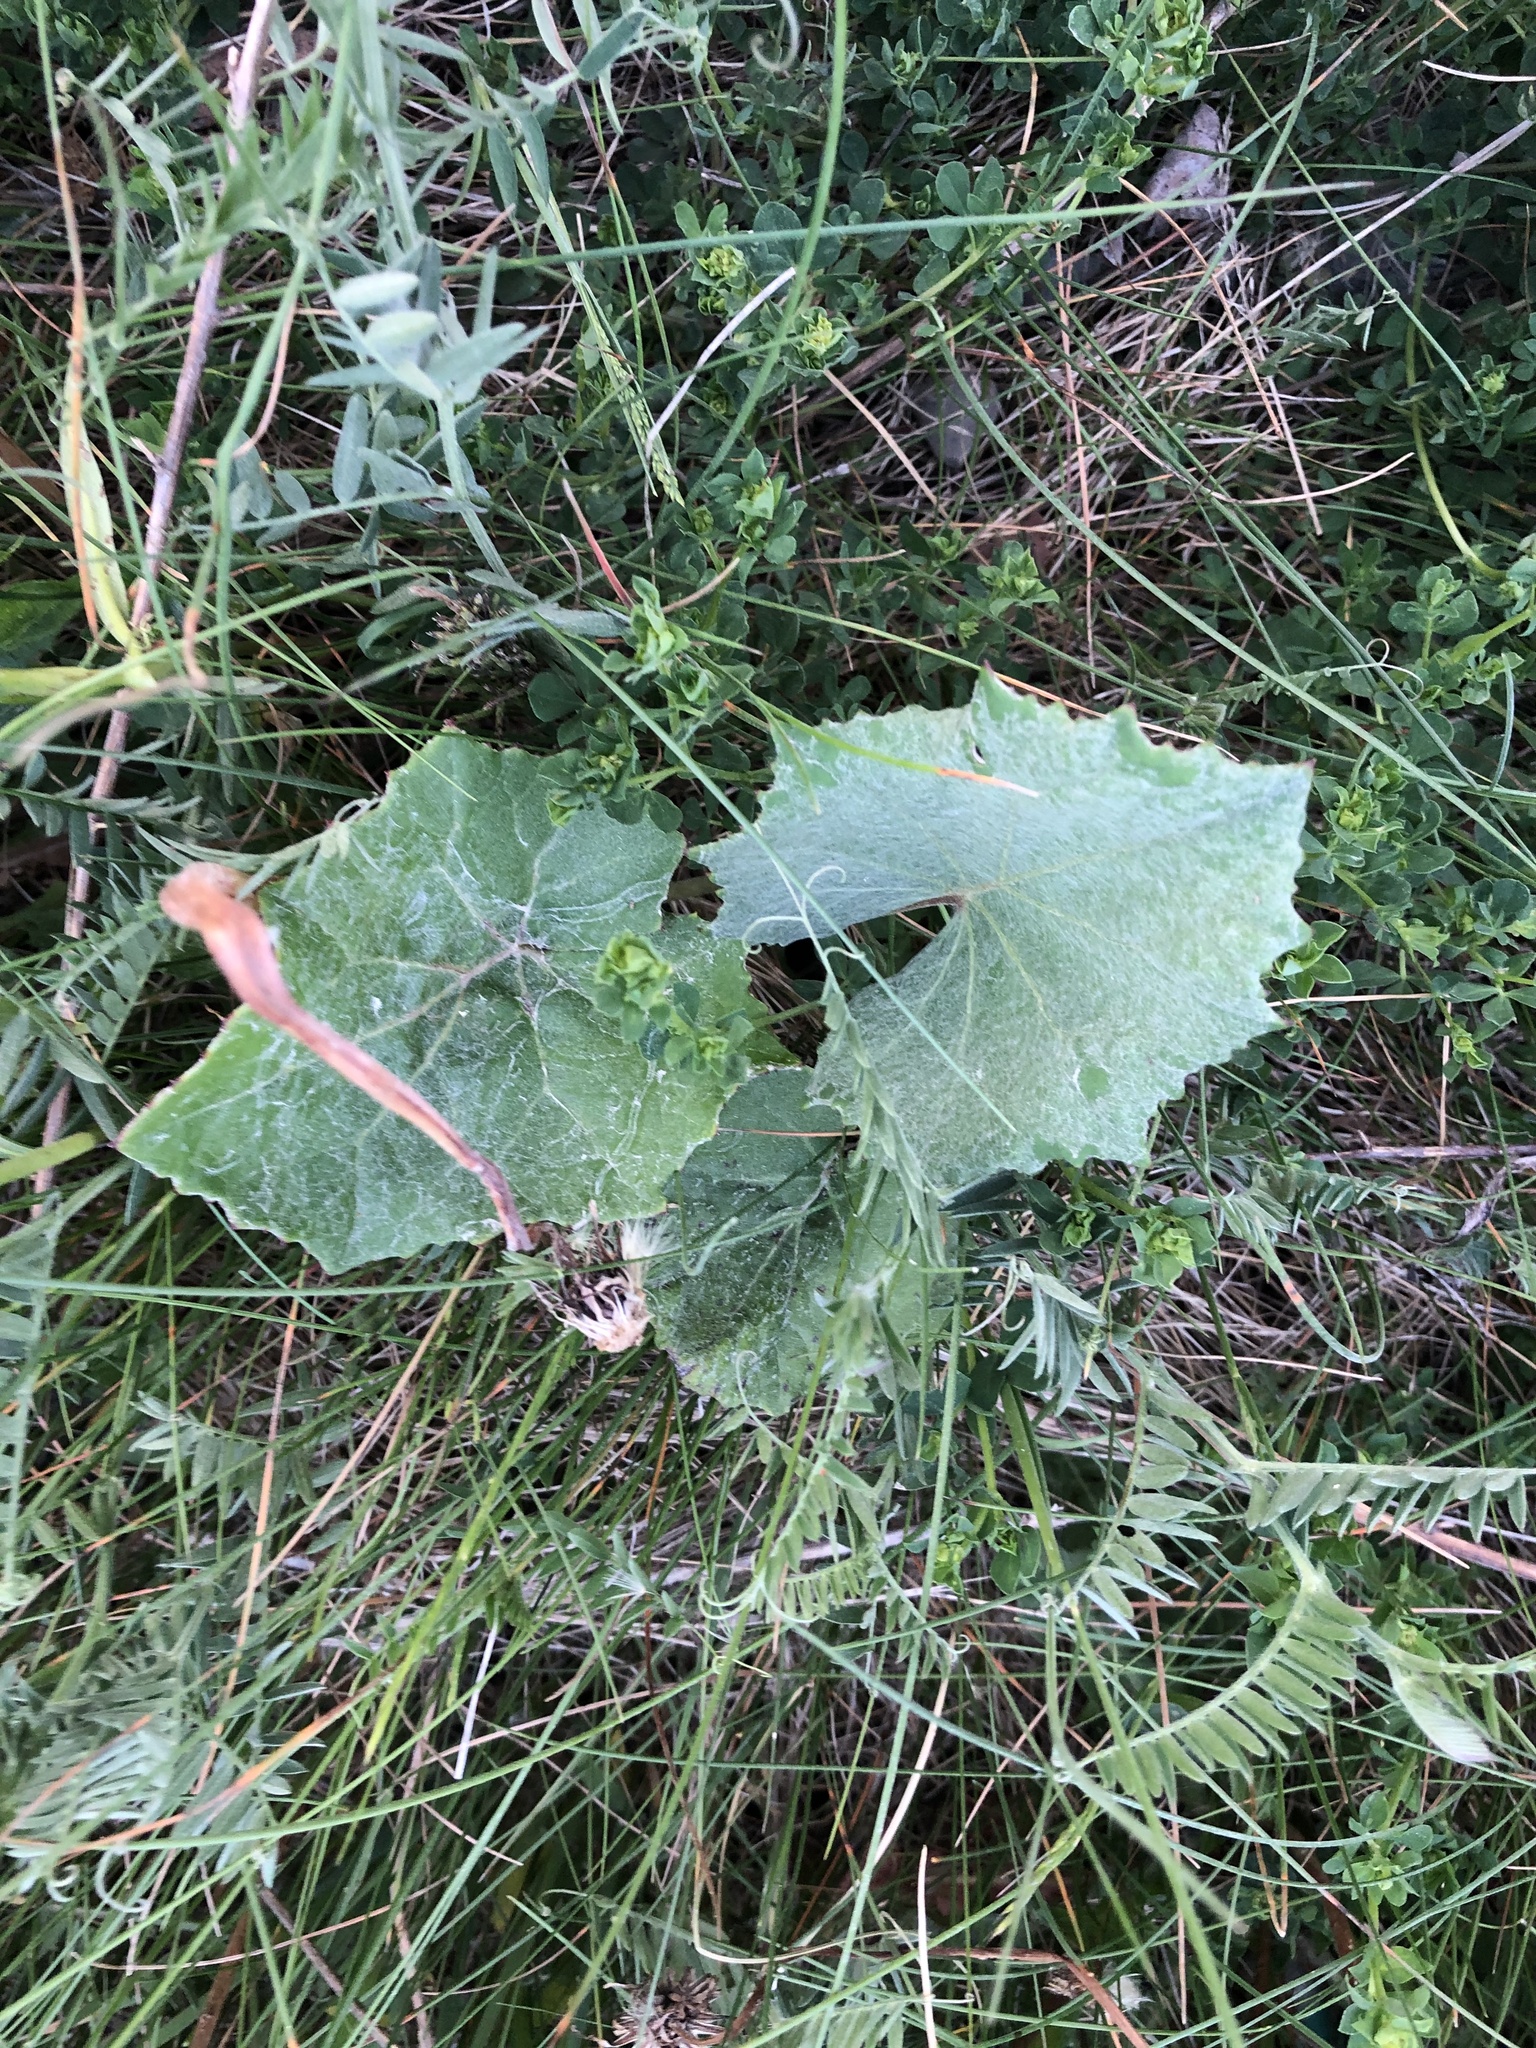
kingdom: Plantae
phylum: Tracheophyta
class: Magnoliopsida
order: Asterales
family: Asteraceae
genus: Tussilago
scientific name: Tussilago farfara
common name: Coltsfoot
